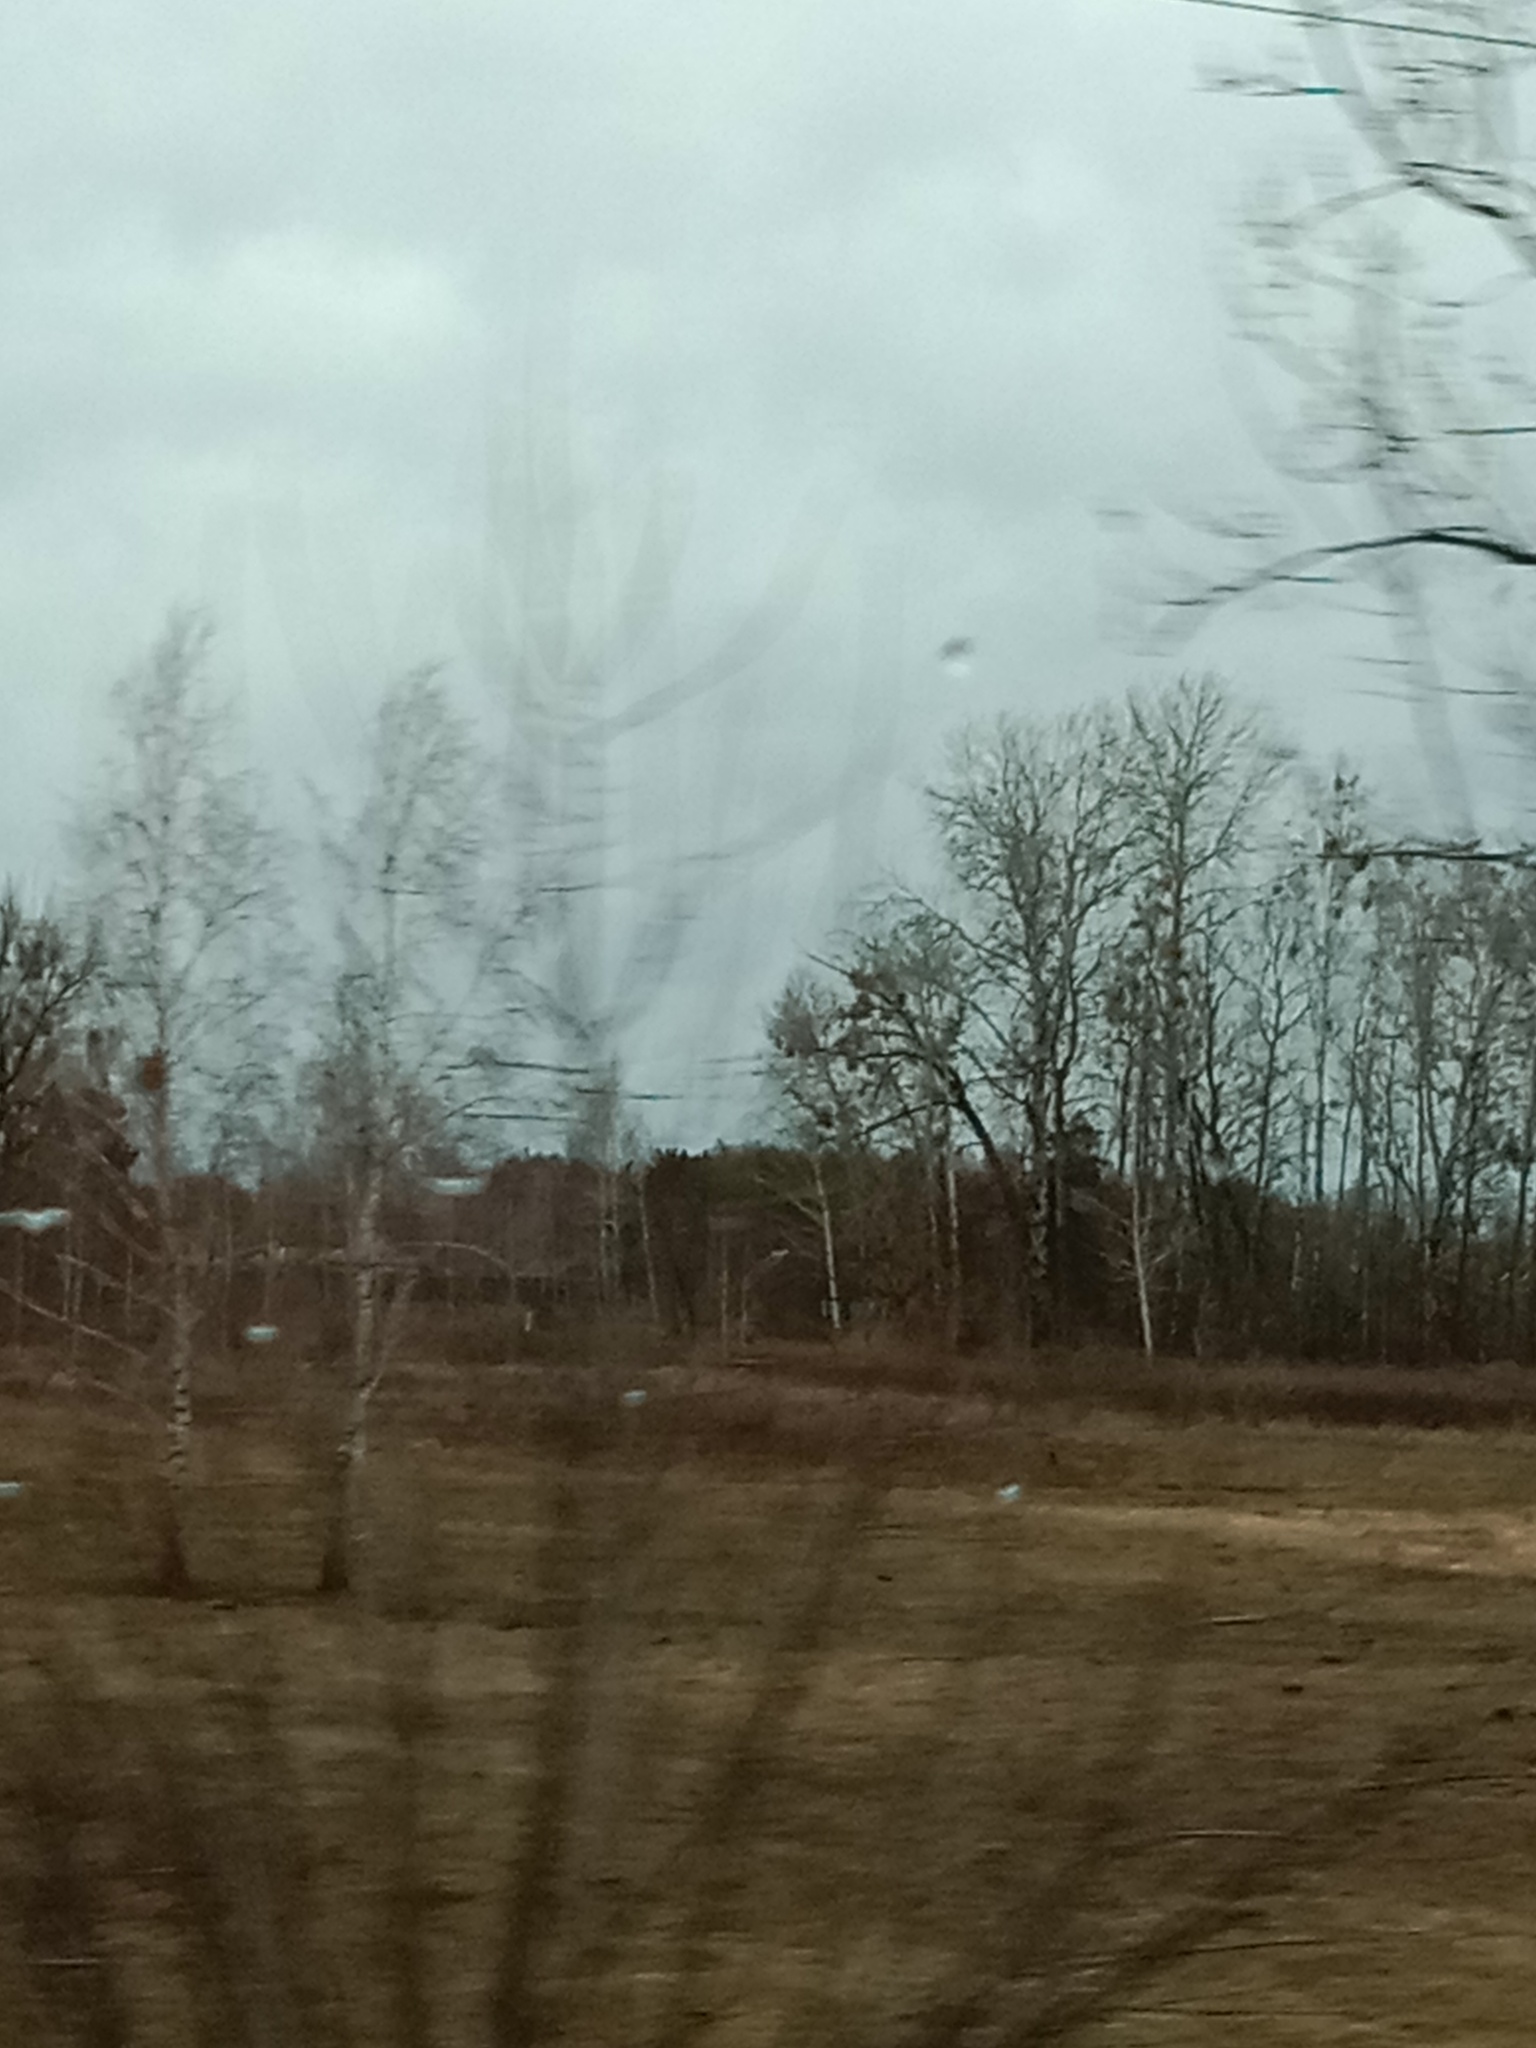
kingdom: Plantae
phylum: Tracheophyta
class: Magnoliopsida
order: Santalales
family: Viscaceae
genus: Viscum
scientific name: Viscum album
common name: Mistletoe
